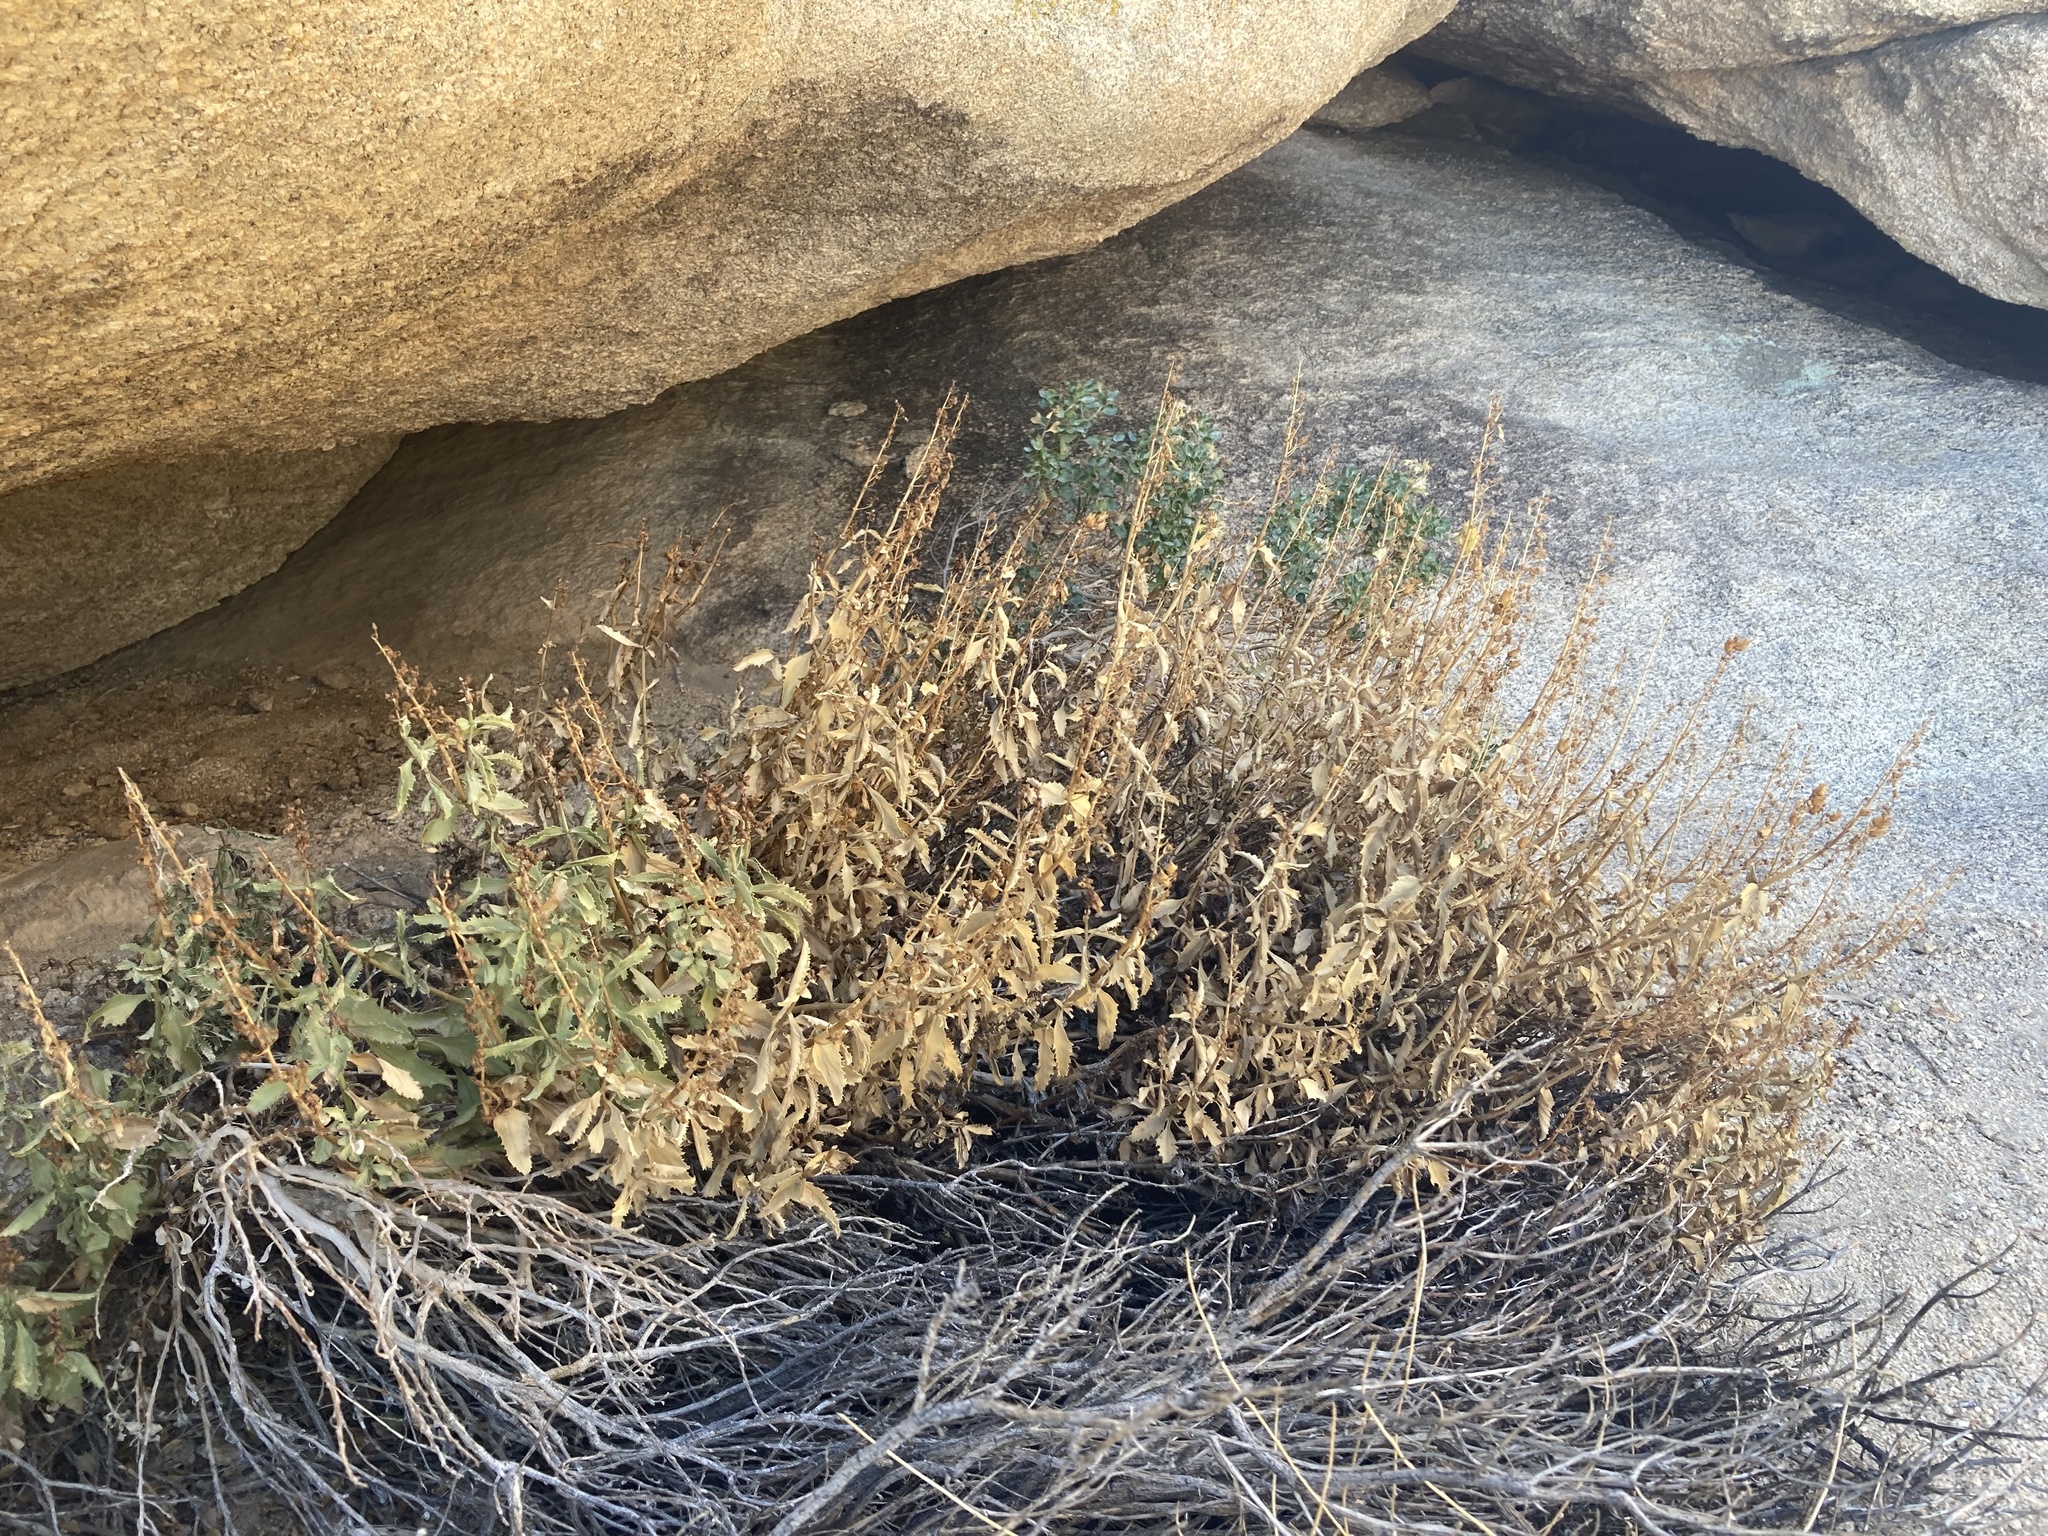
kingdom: Plantae
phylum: Tracheophyta
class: Magnoliopsida
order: Lamiales
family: Plantaginaceae
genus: Penstemon
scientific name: Penstemon clevelandii
